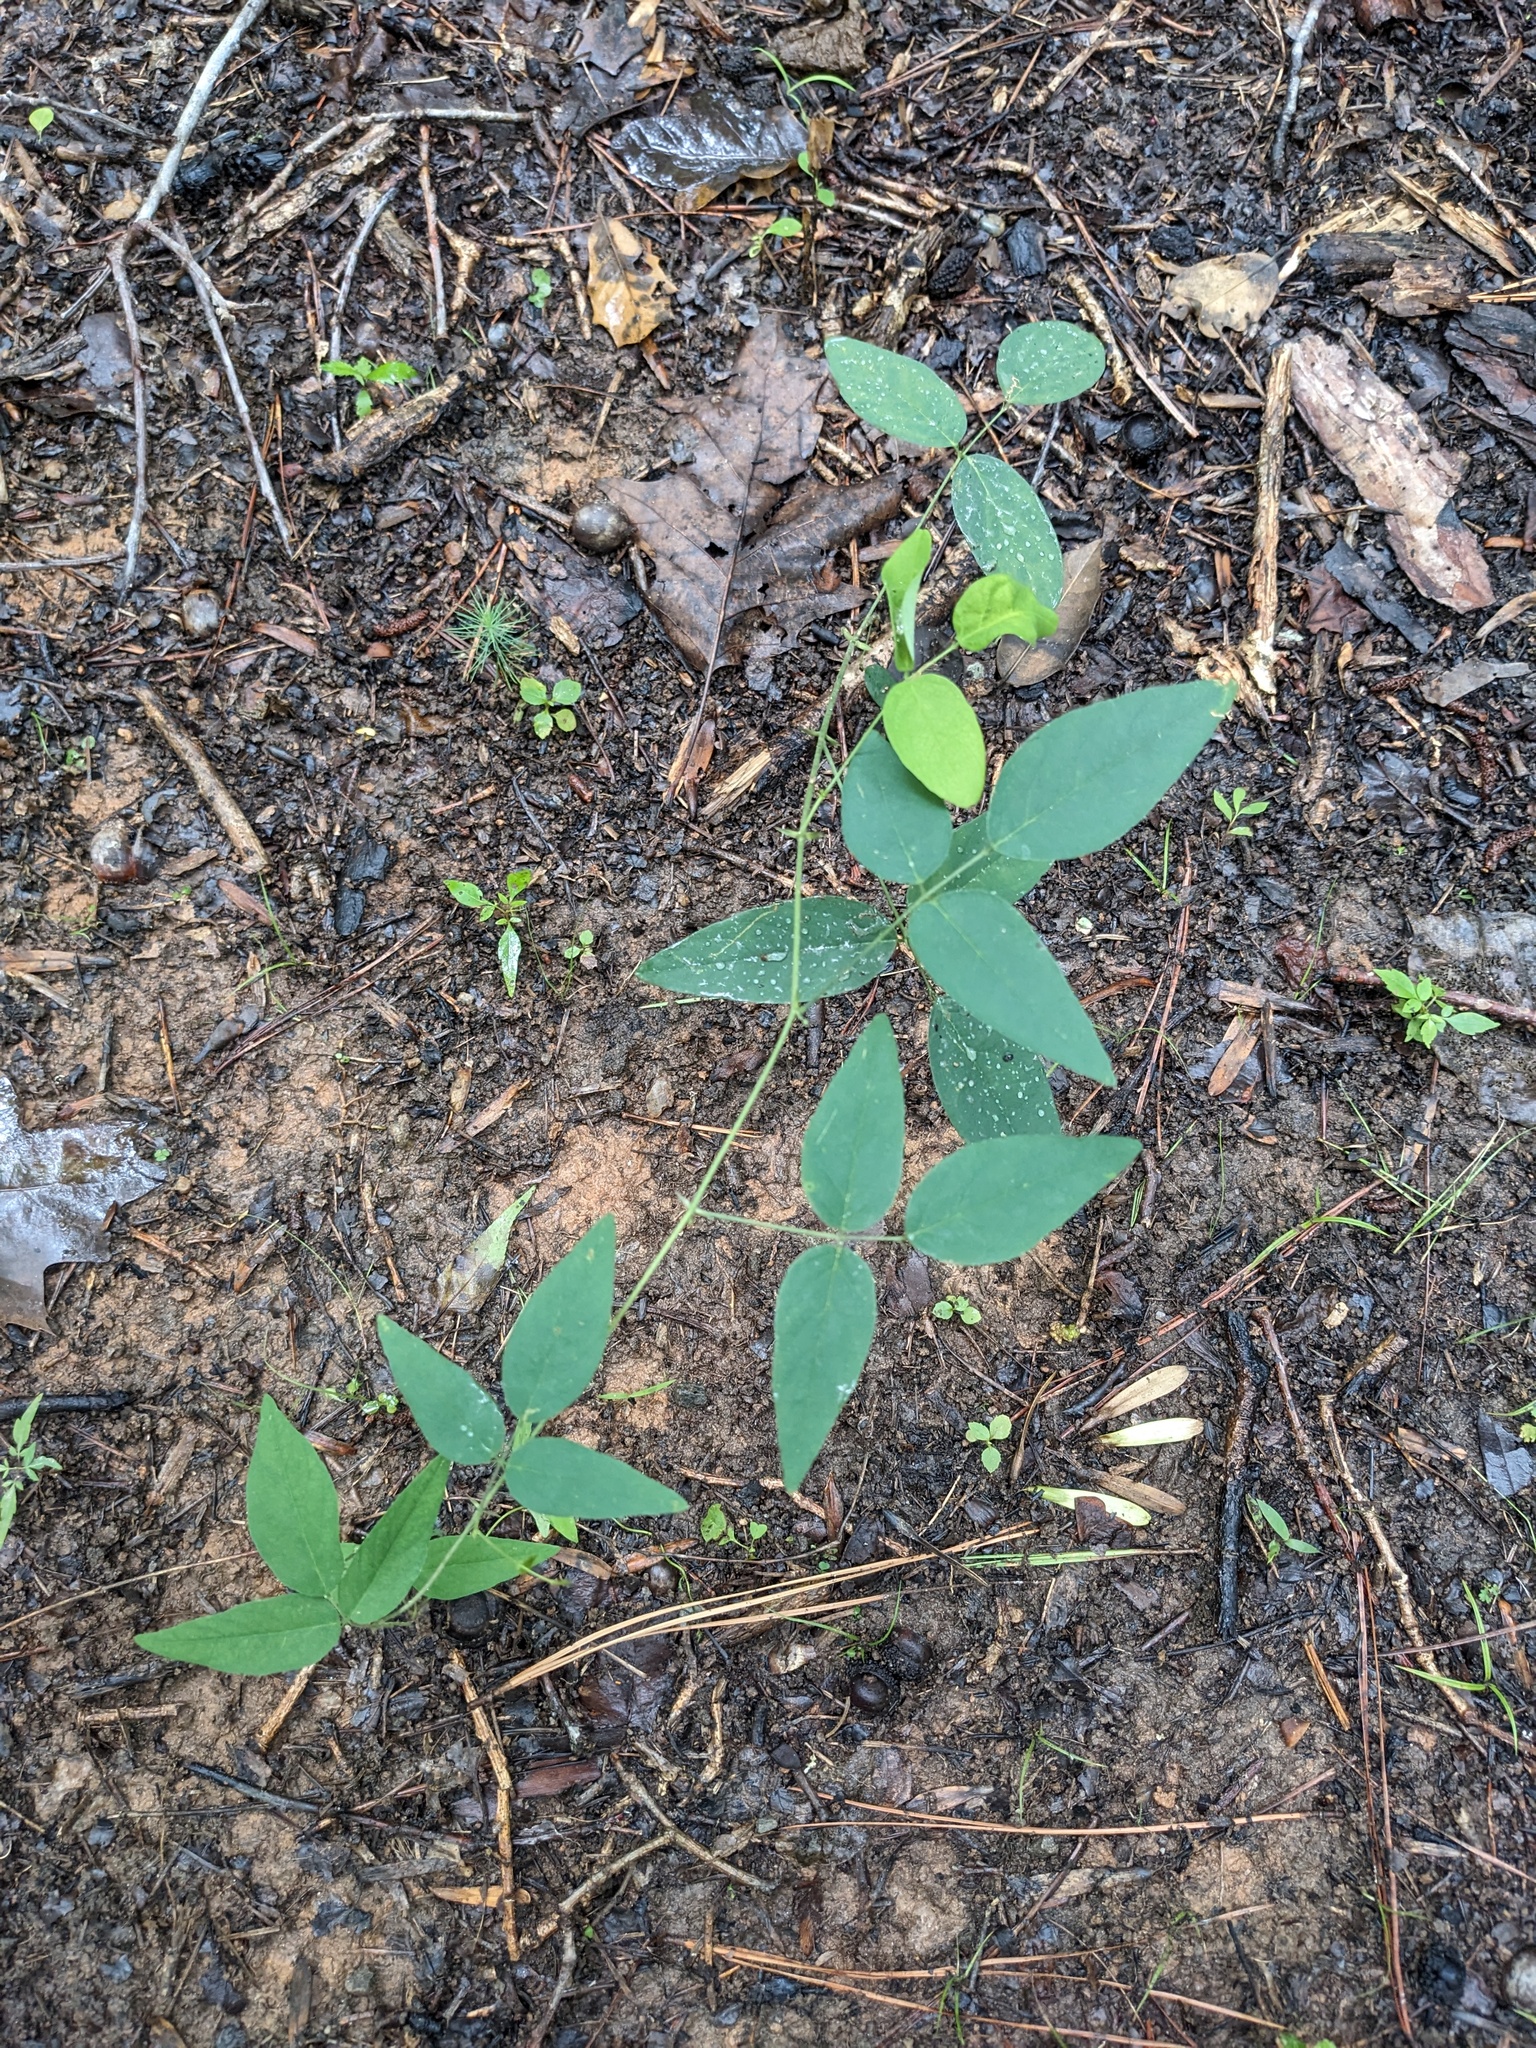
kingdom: Plantae
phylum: Tracheophyta
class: Magnoliopsida
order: Fabales
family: Fabaceae
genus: Clitoria
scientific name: Clitoria mariana
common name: Butterfly-pea
